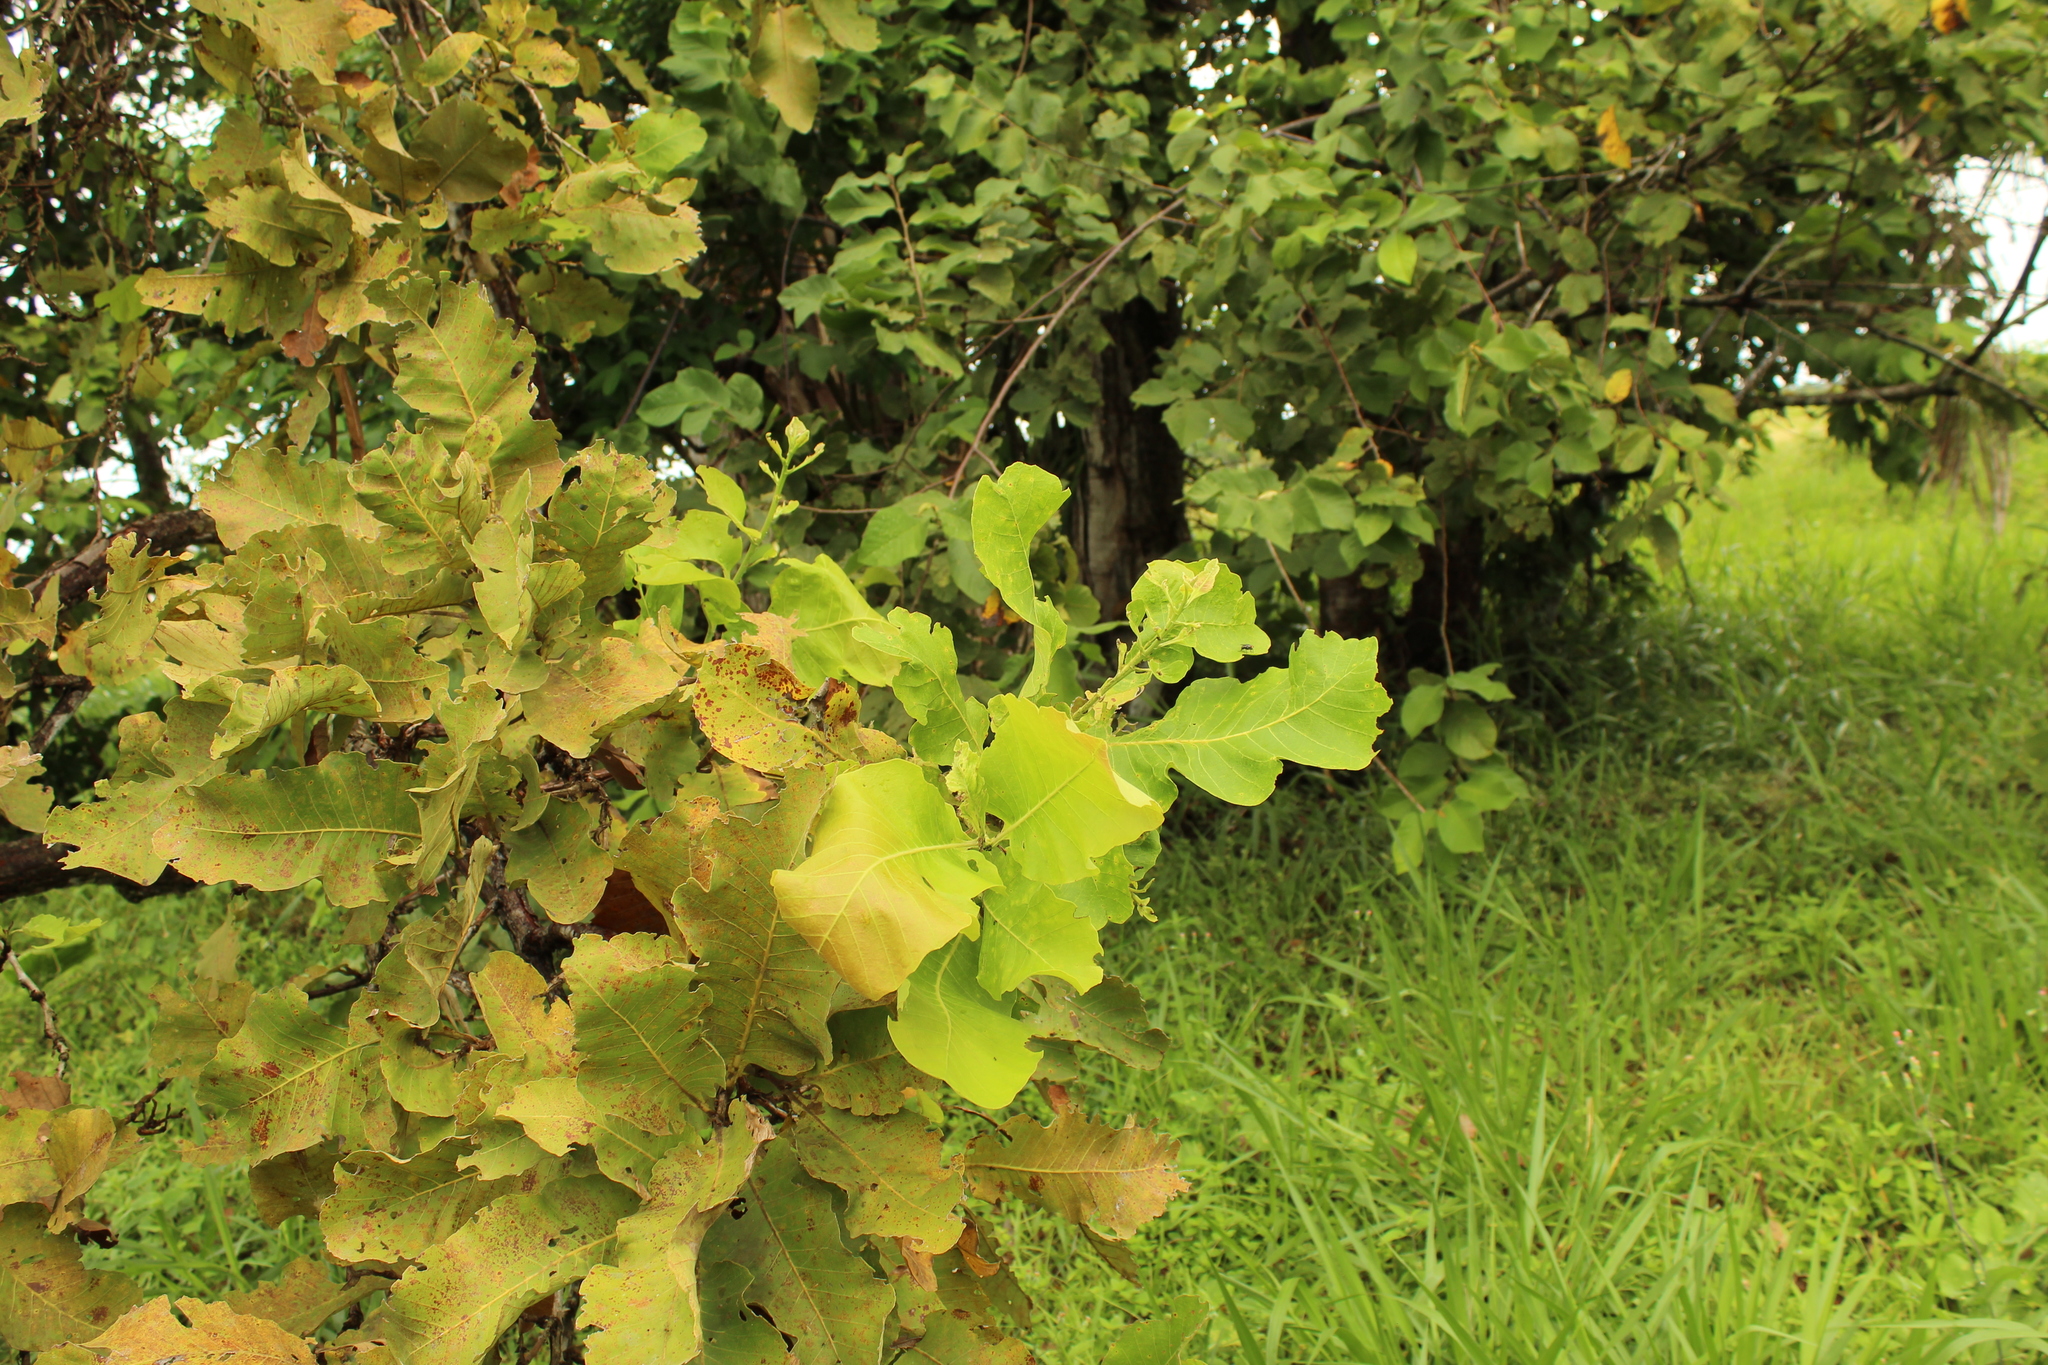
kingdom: Plantae
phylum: Tracheophyta
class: Magnoliopsida
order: Dilleniales
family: Dilleniaceae
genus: Curatella
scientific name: Curatella americana
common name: Sandpaper tree
